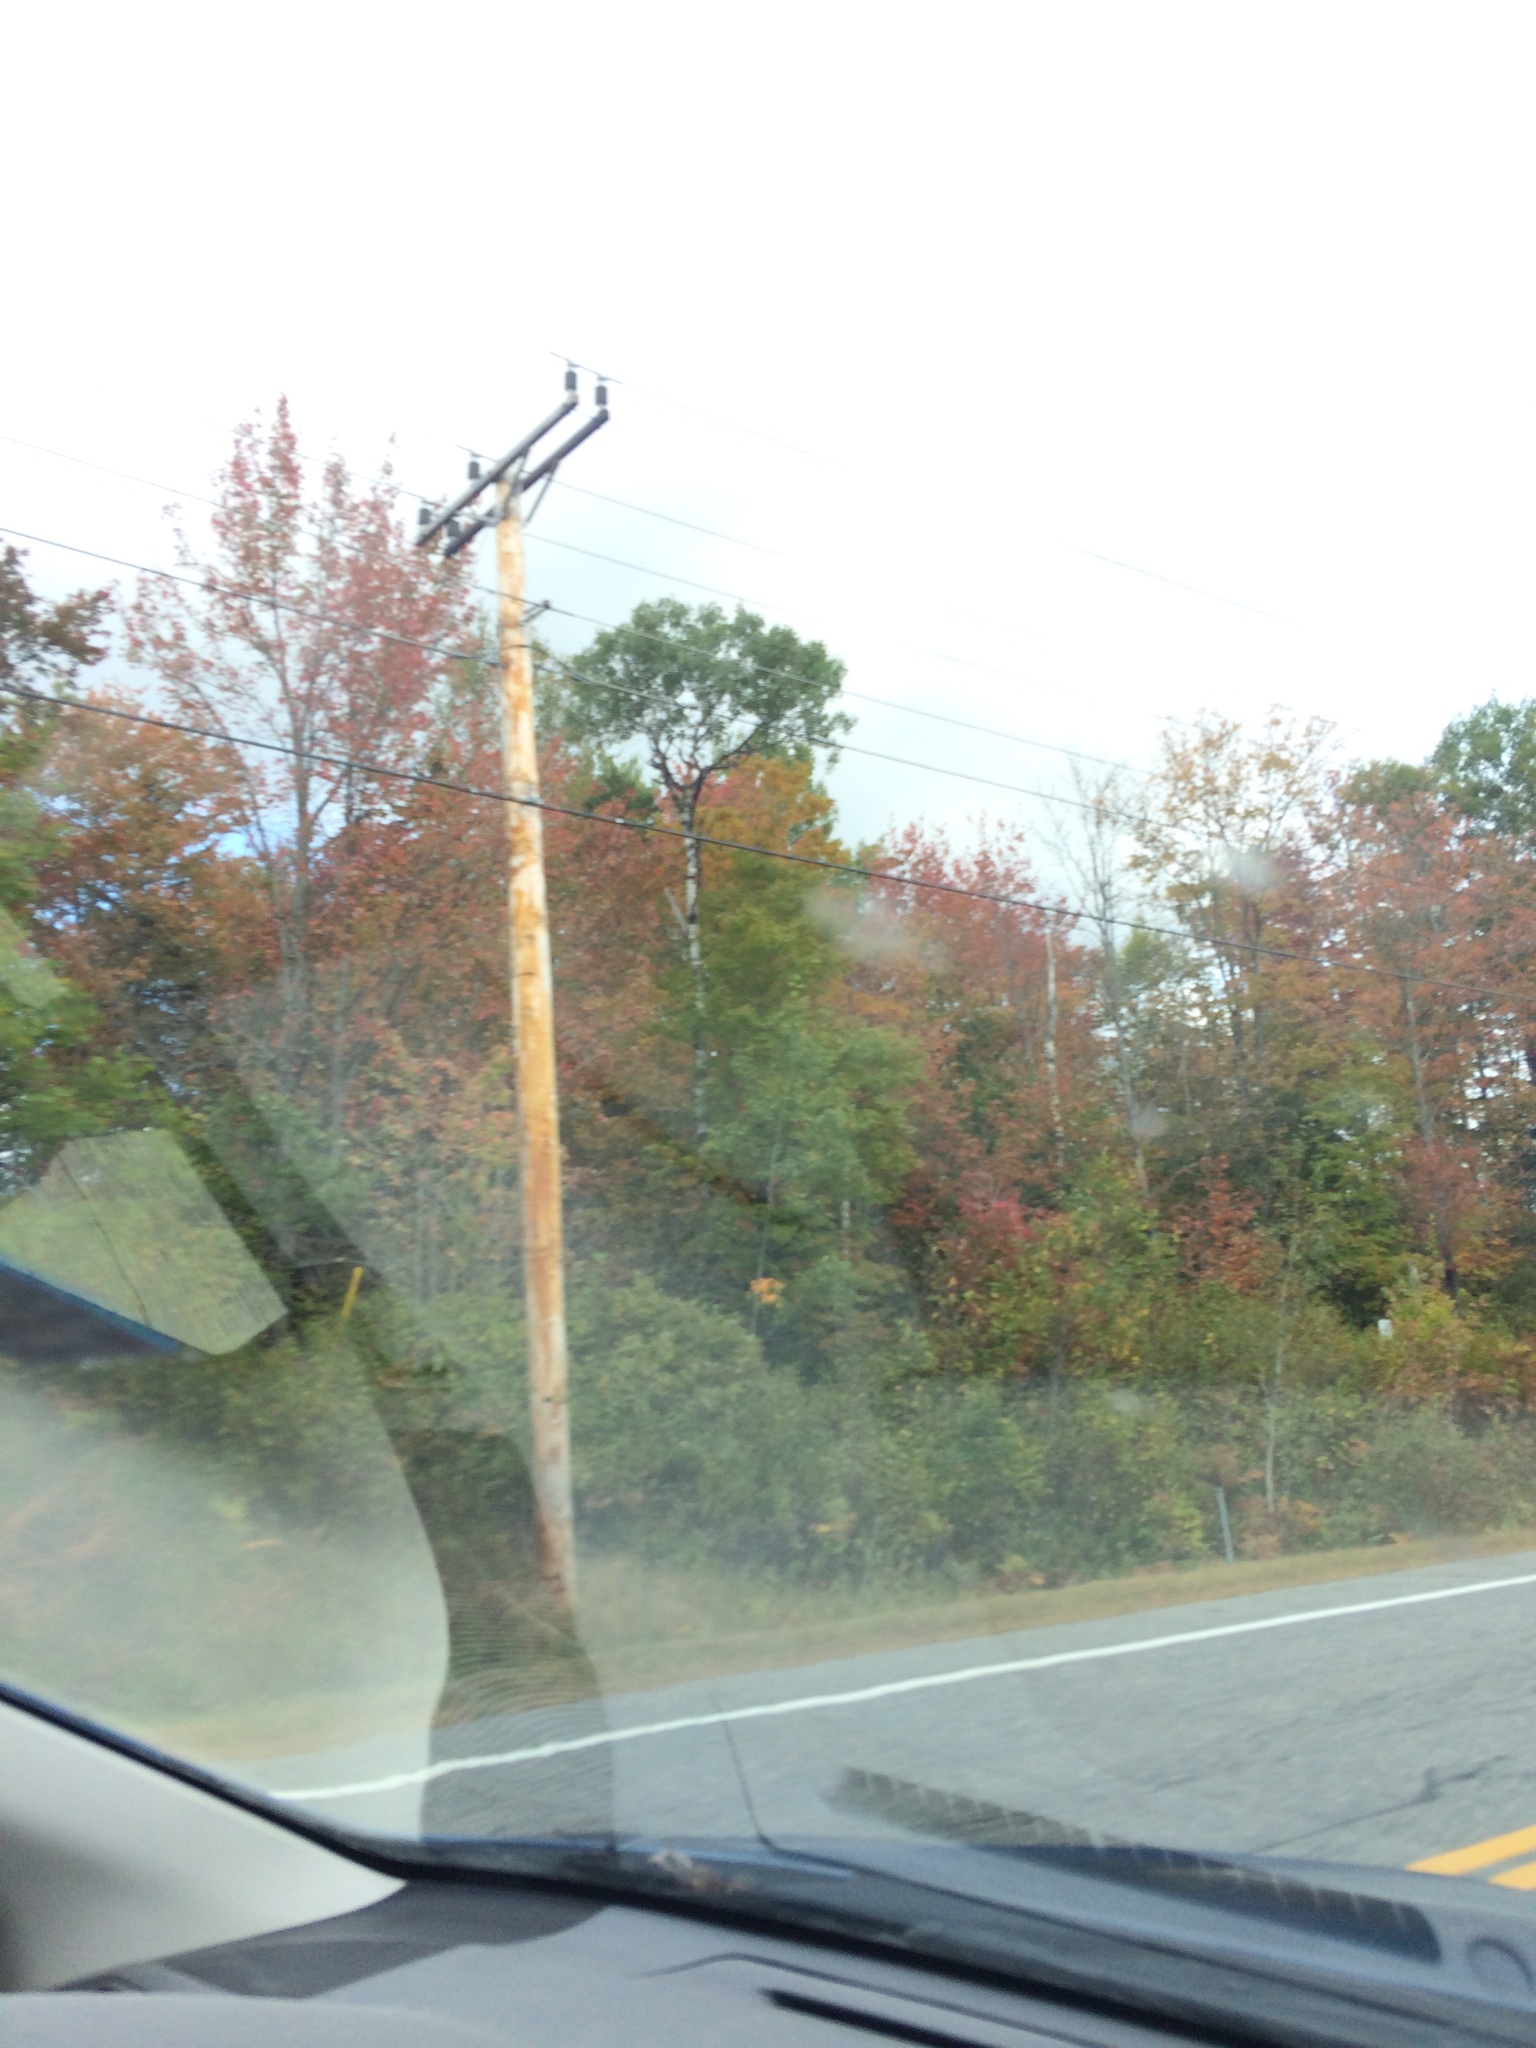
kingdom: Plantae
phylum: Tracheophyta
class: Magnoliopsida
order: Sapindales
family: Sapindaceae
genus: Acer
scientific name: Acer rubrum
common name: Red maple
